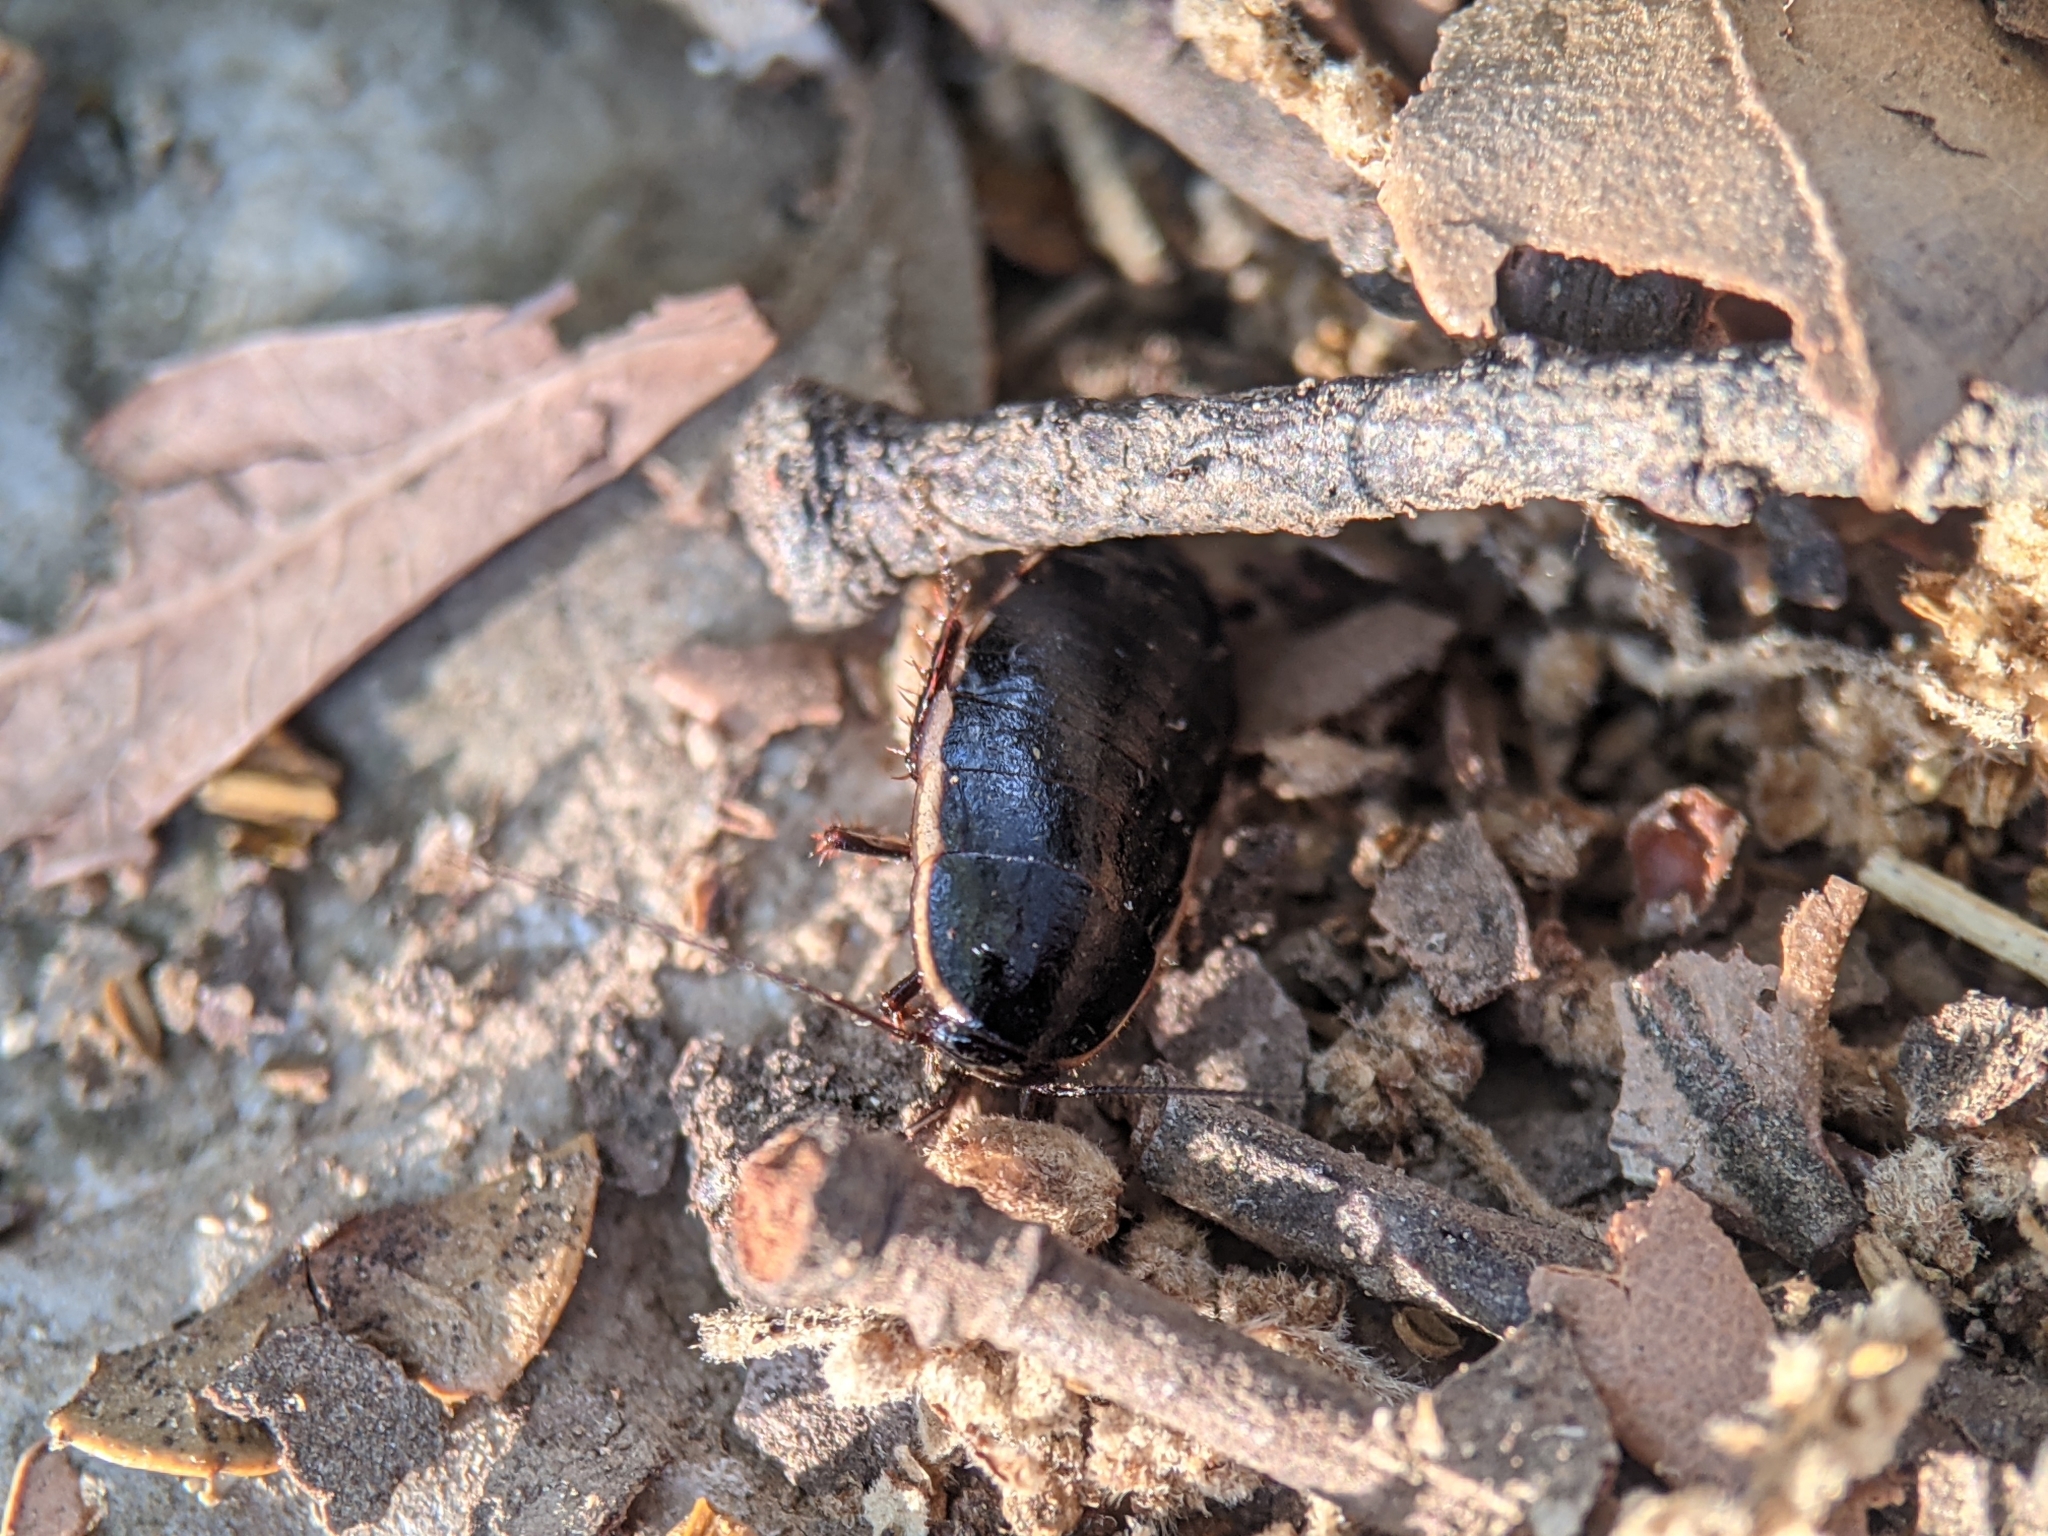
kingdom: Animalia
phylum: Arthropoda
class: Insecta
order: Blattodea
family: Ectobiidae
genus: Loboptera
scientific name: Loboptera decipiens
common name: Lobe-winged cockroach
